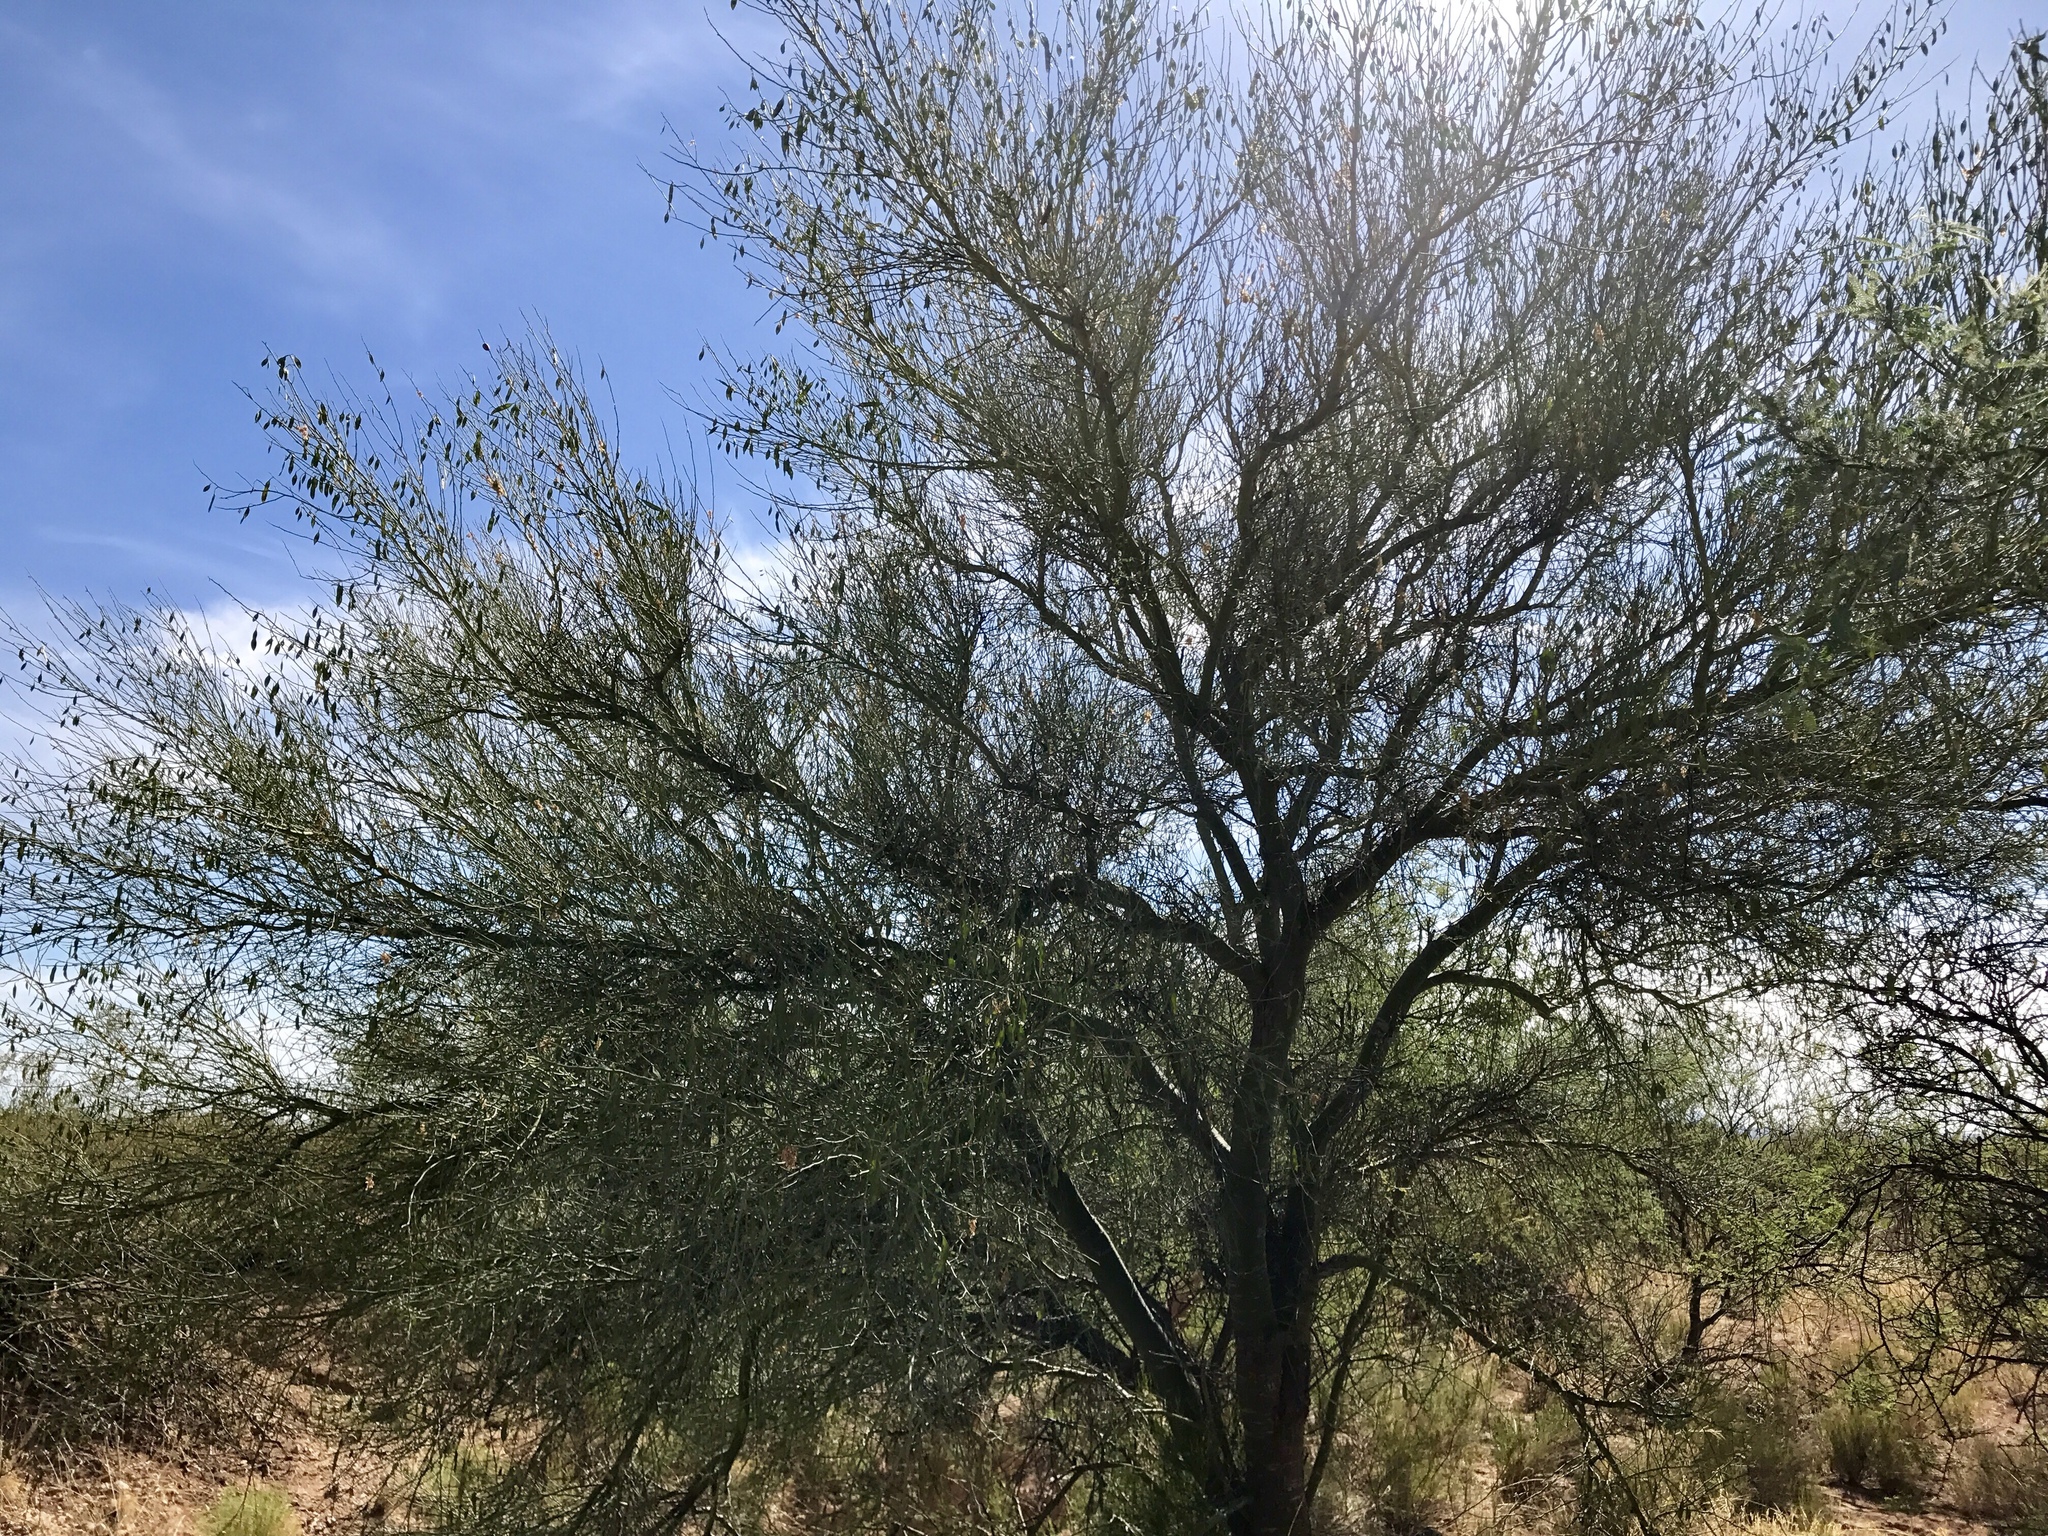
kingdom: Plantae
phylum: Tracheophyta
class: Magnoliopsida
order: Fabales
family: Fabaceae
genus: Parkinsonia
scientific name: Parkinsonia florida
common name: Blue paloverde
